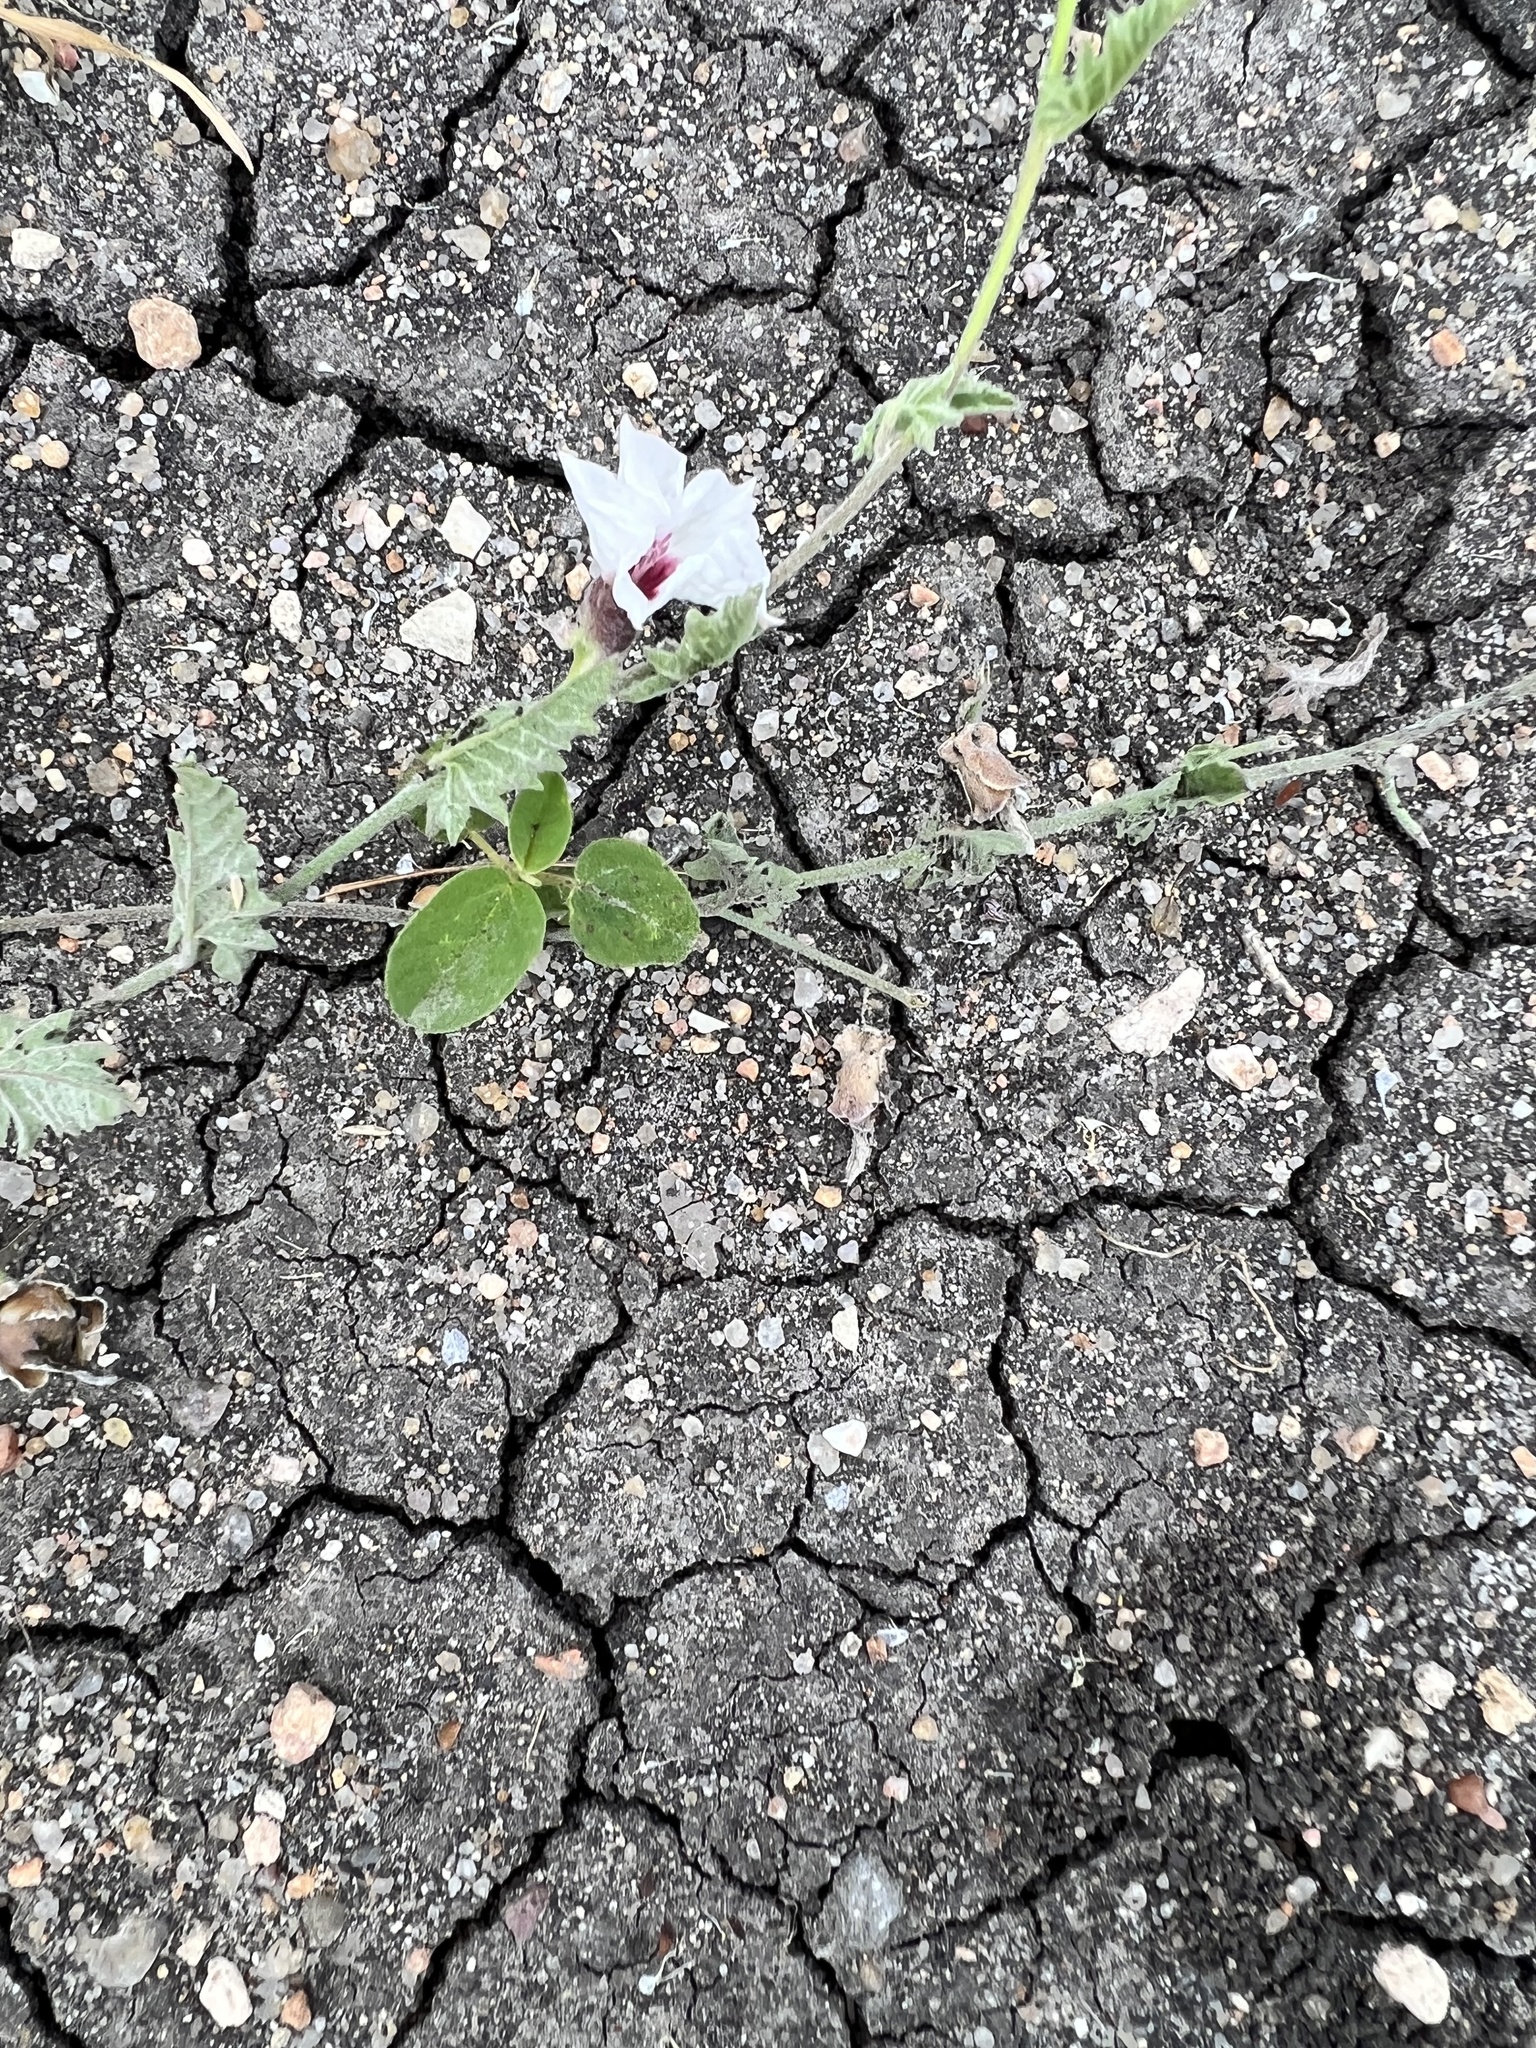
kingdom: Plantae
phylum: Tracheophyta
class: Magnoliopsida
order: Solanales
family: Convolvulaceae
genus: Convolvulus
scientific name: Convolvulus equitans
